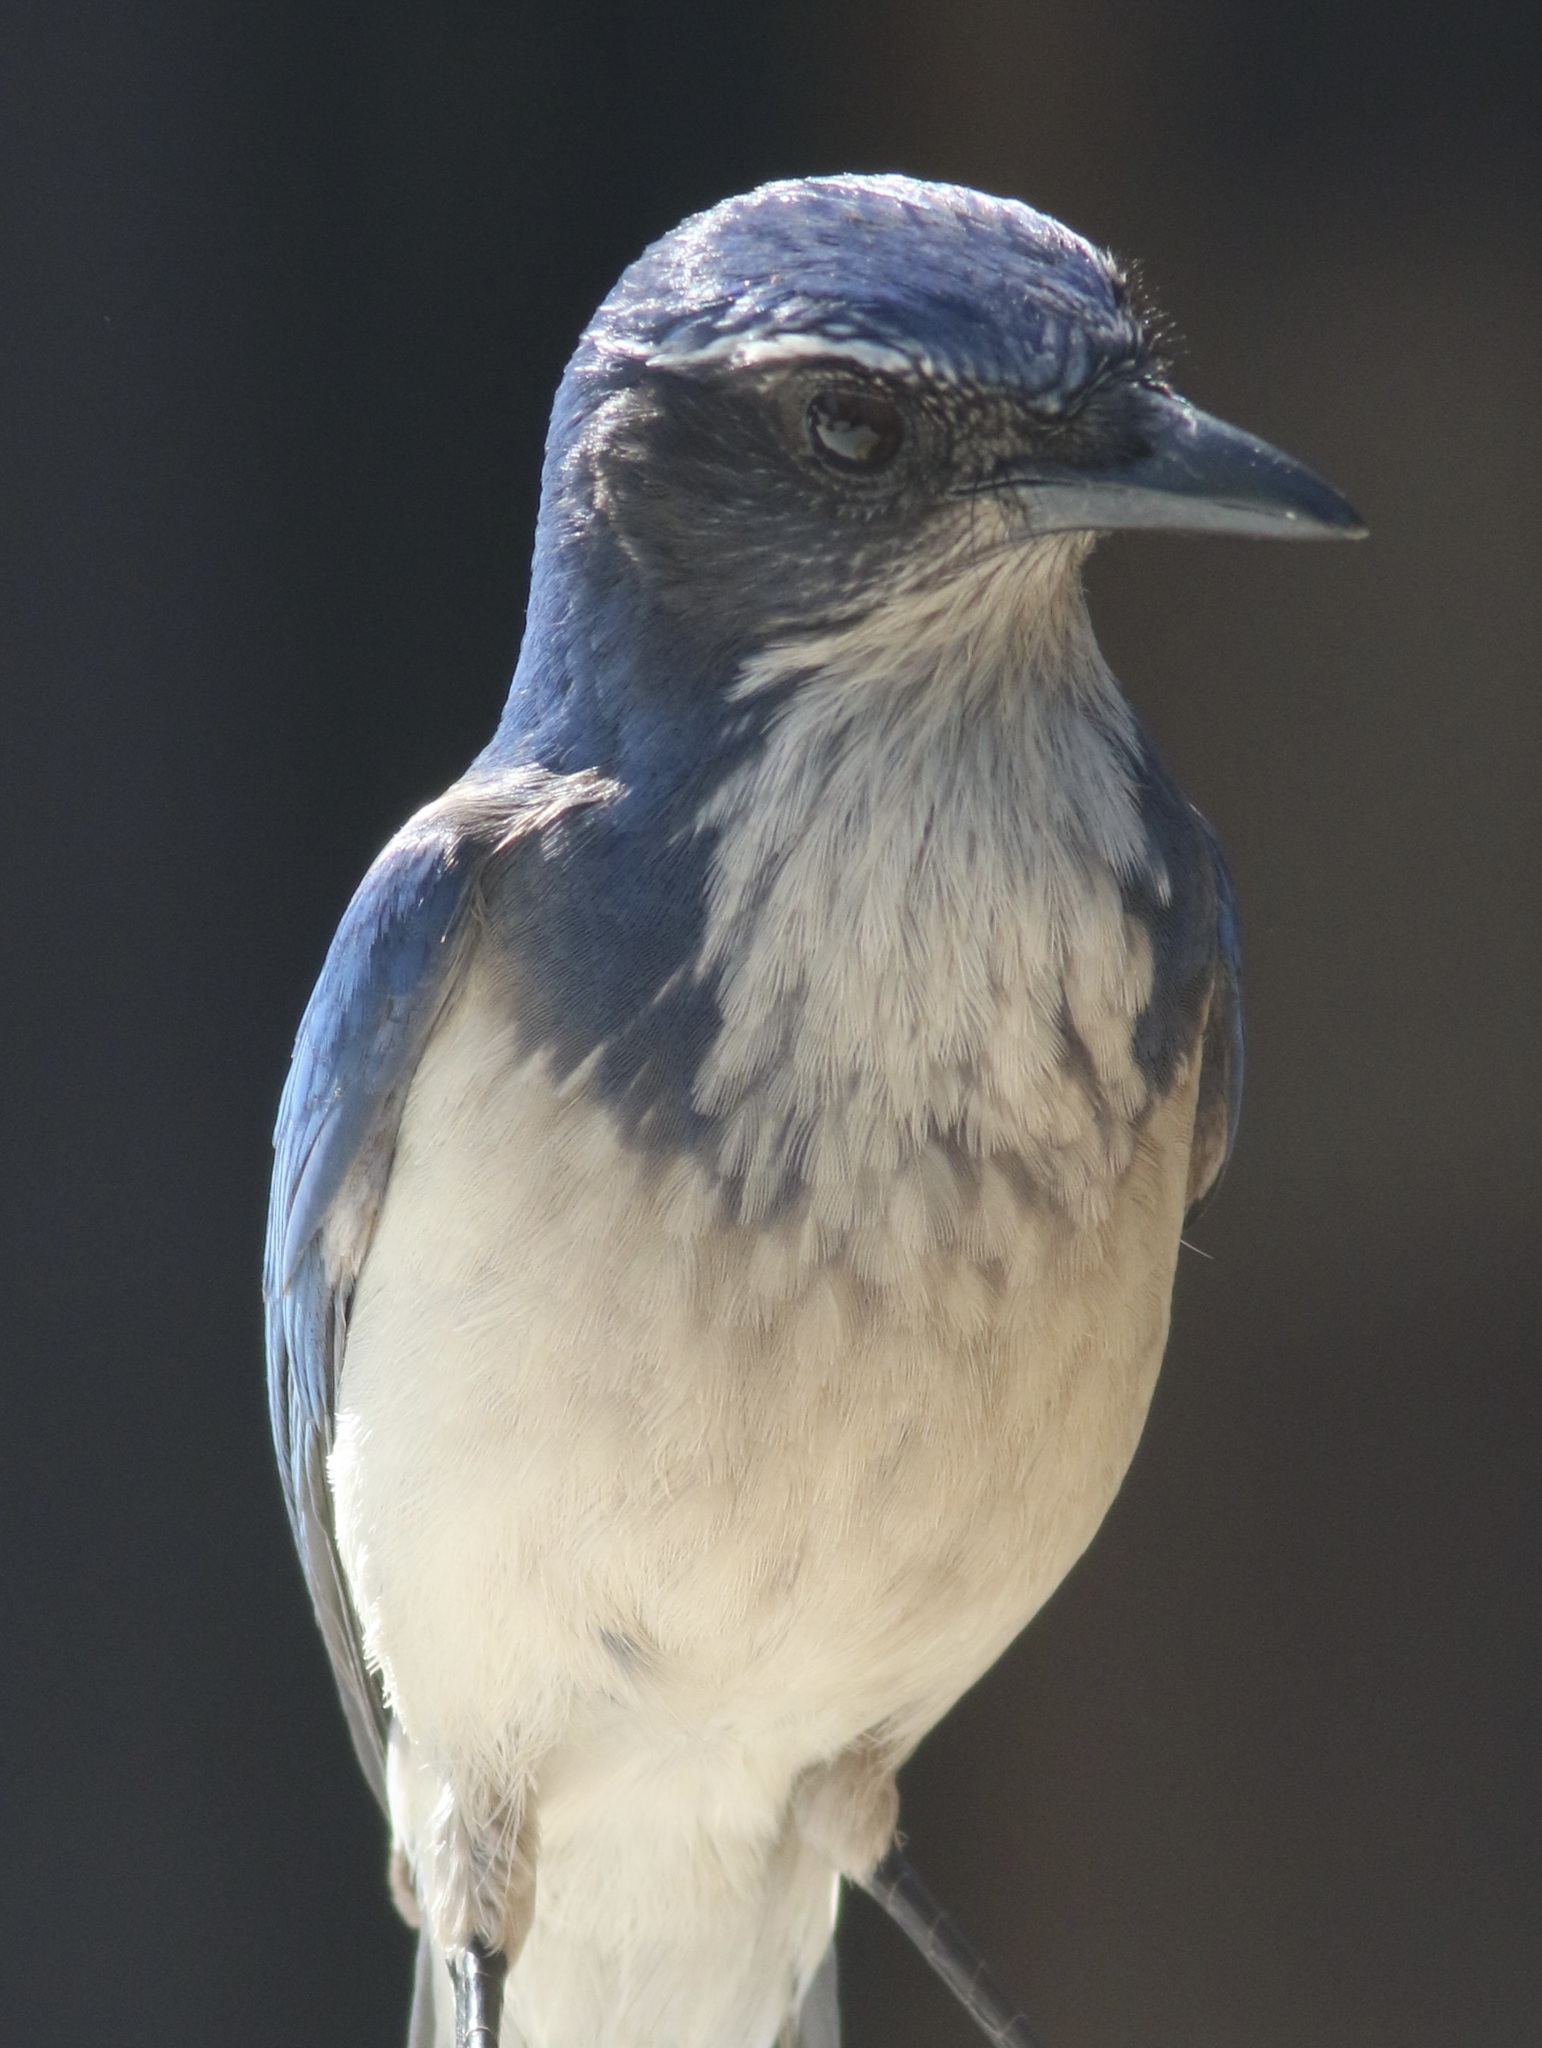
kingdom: Animalia
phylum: Chordata
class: Aves
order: Passeriformes
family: Corvidae
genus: Aphelocoma
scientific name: Aphelocoma californica
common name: California scrub-jay
